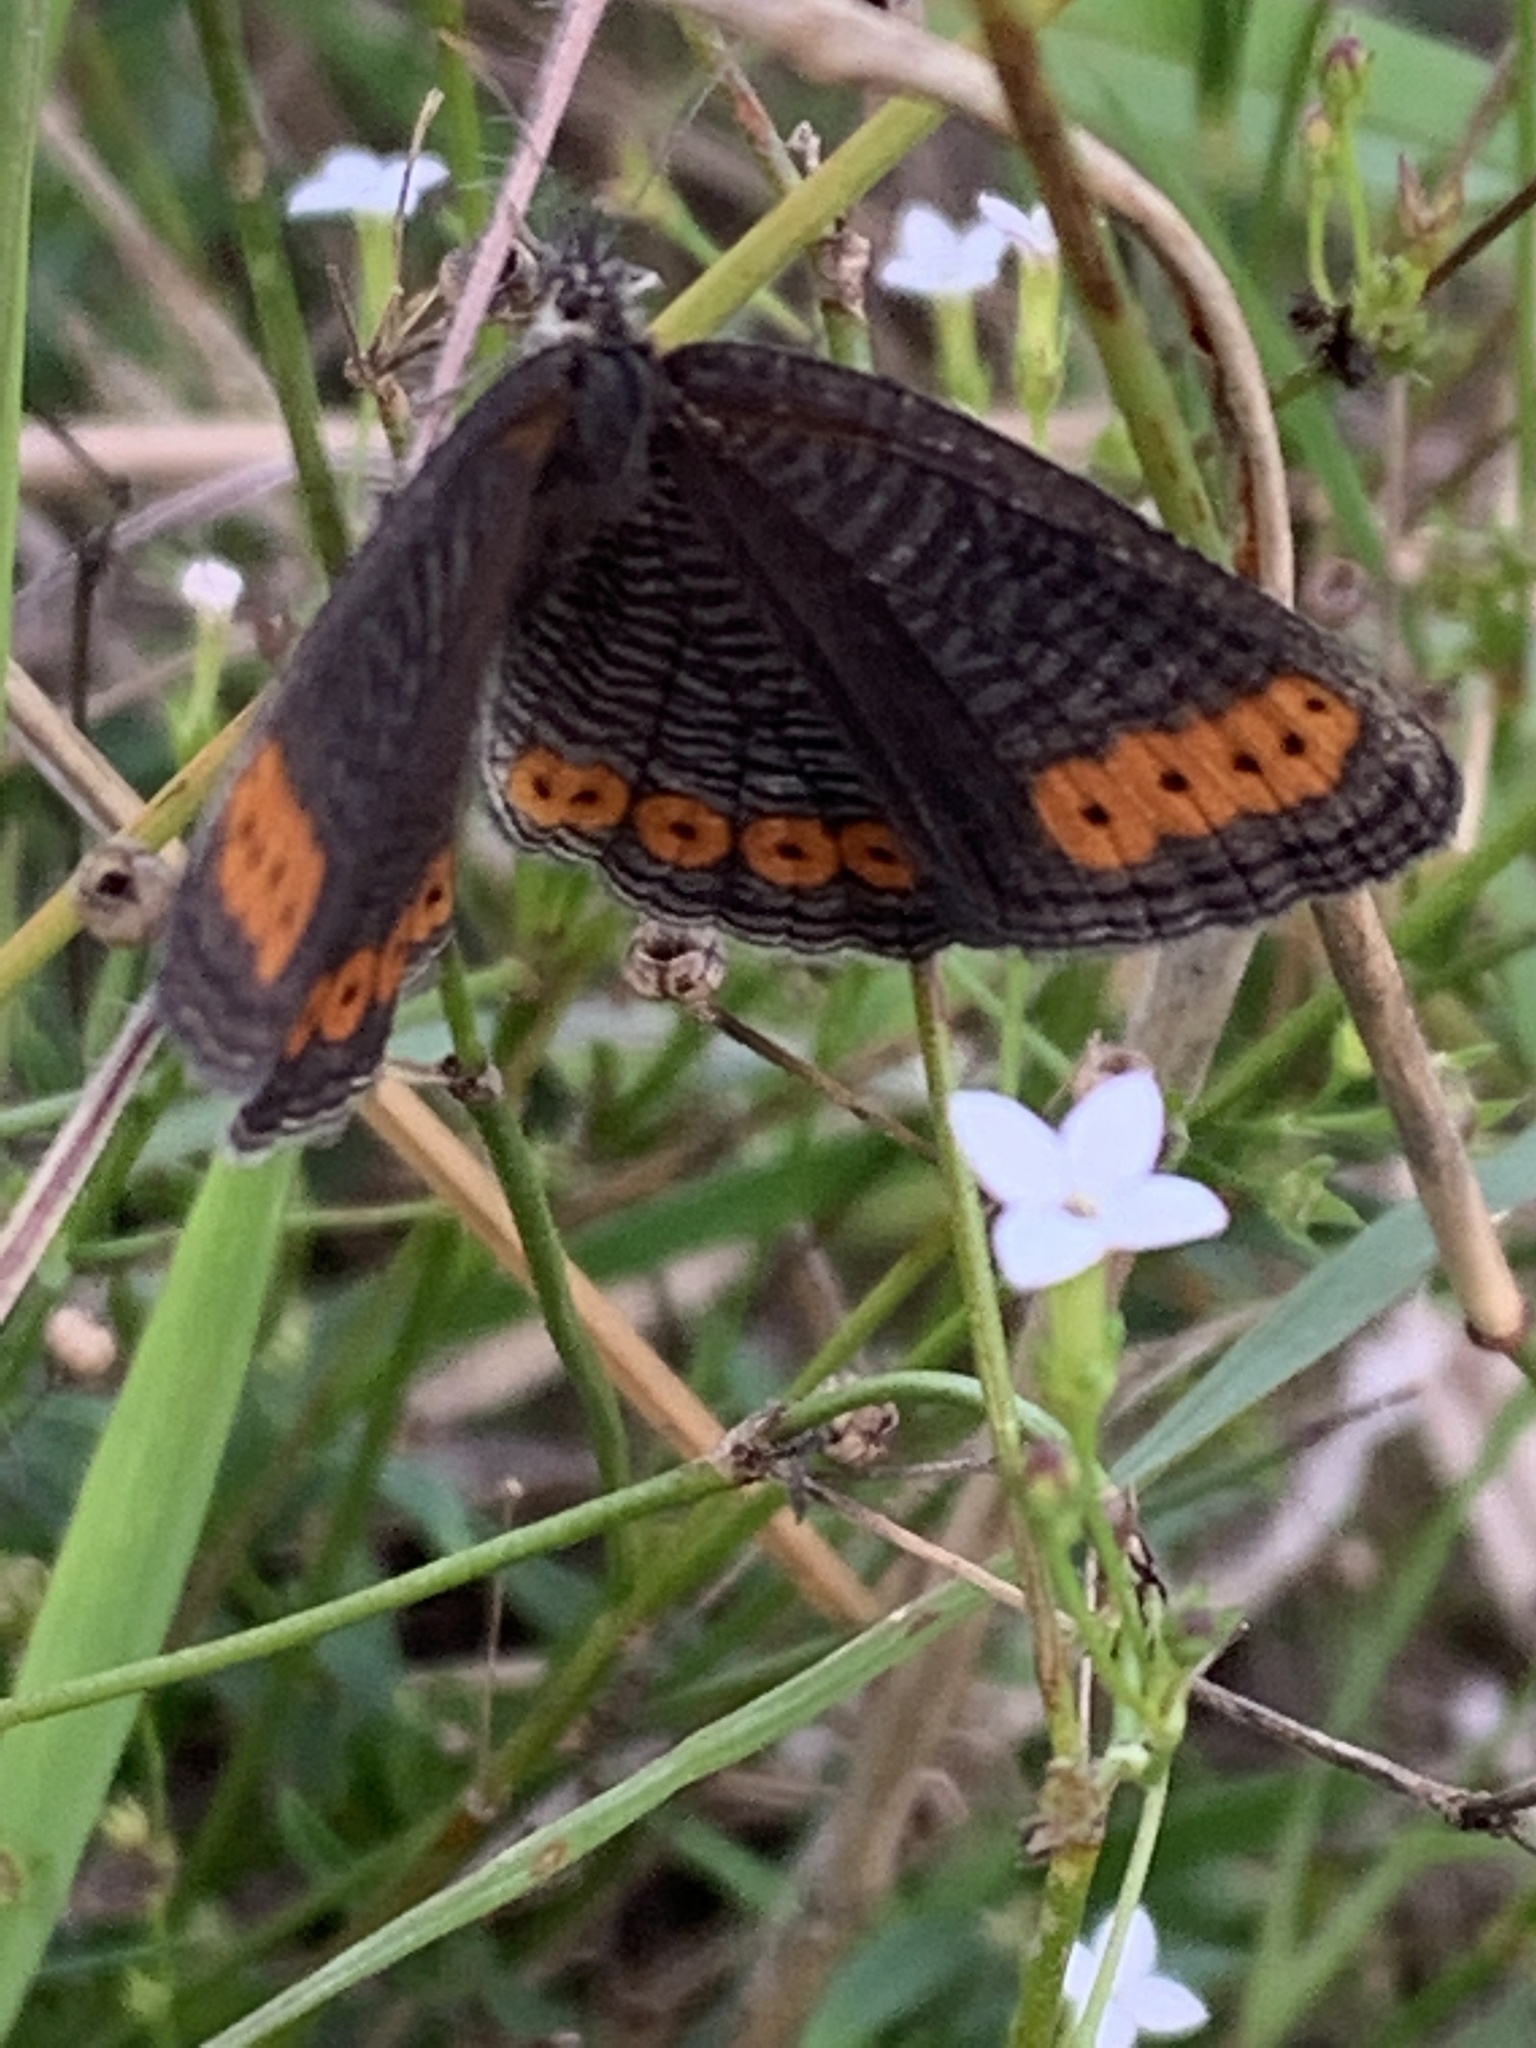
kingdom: Animalia
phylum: Arthropoda
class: Insecta
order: Lepidoptera
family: Nymphalidae
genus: Physcaeneura
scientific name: Physcaeneura panda
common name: Dark-webbed ringlet
